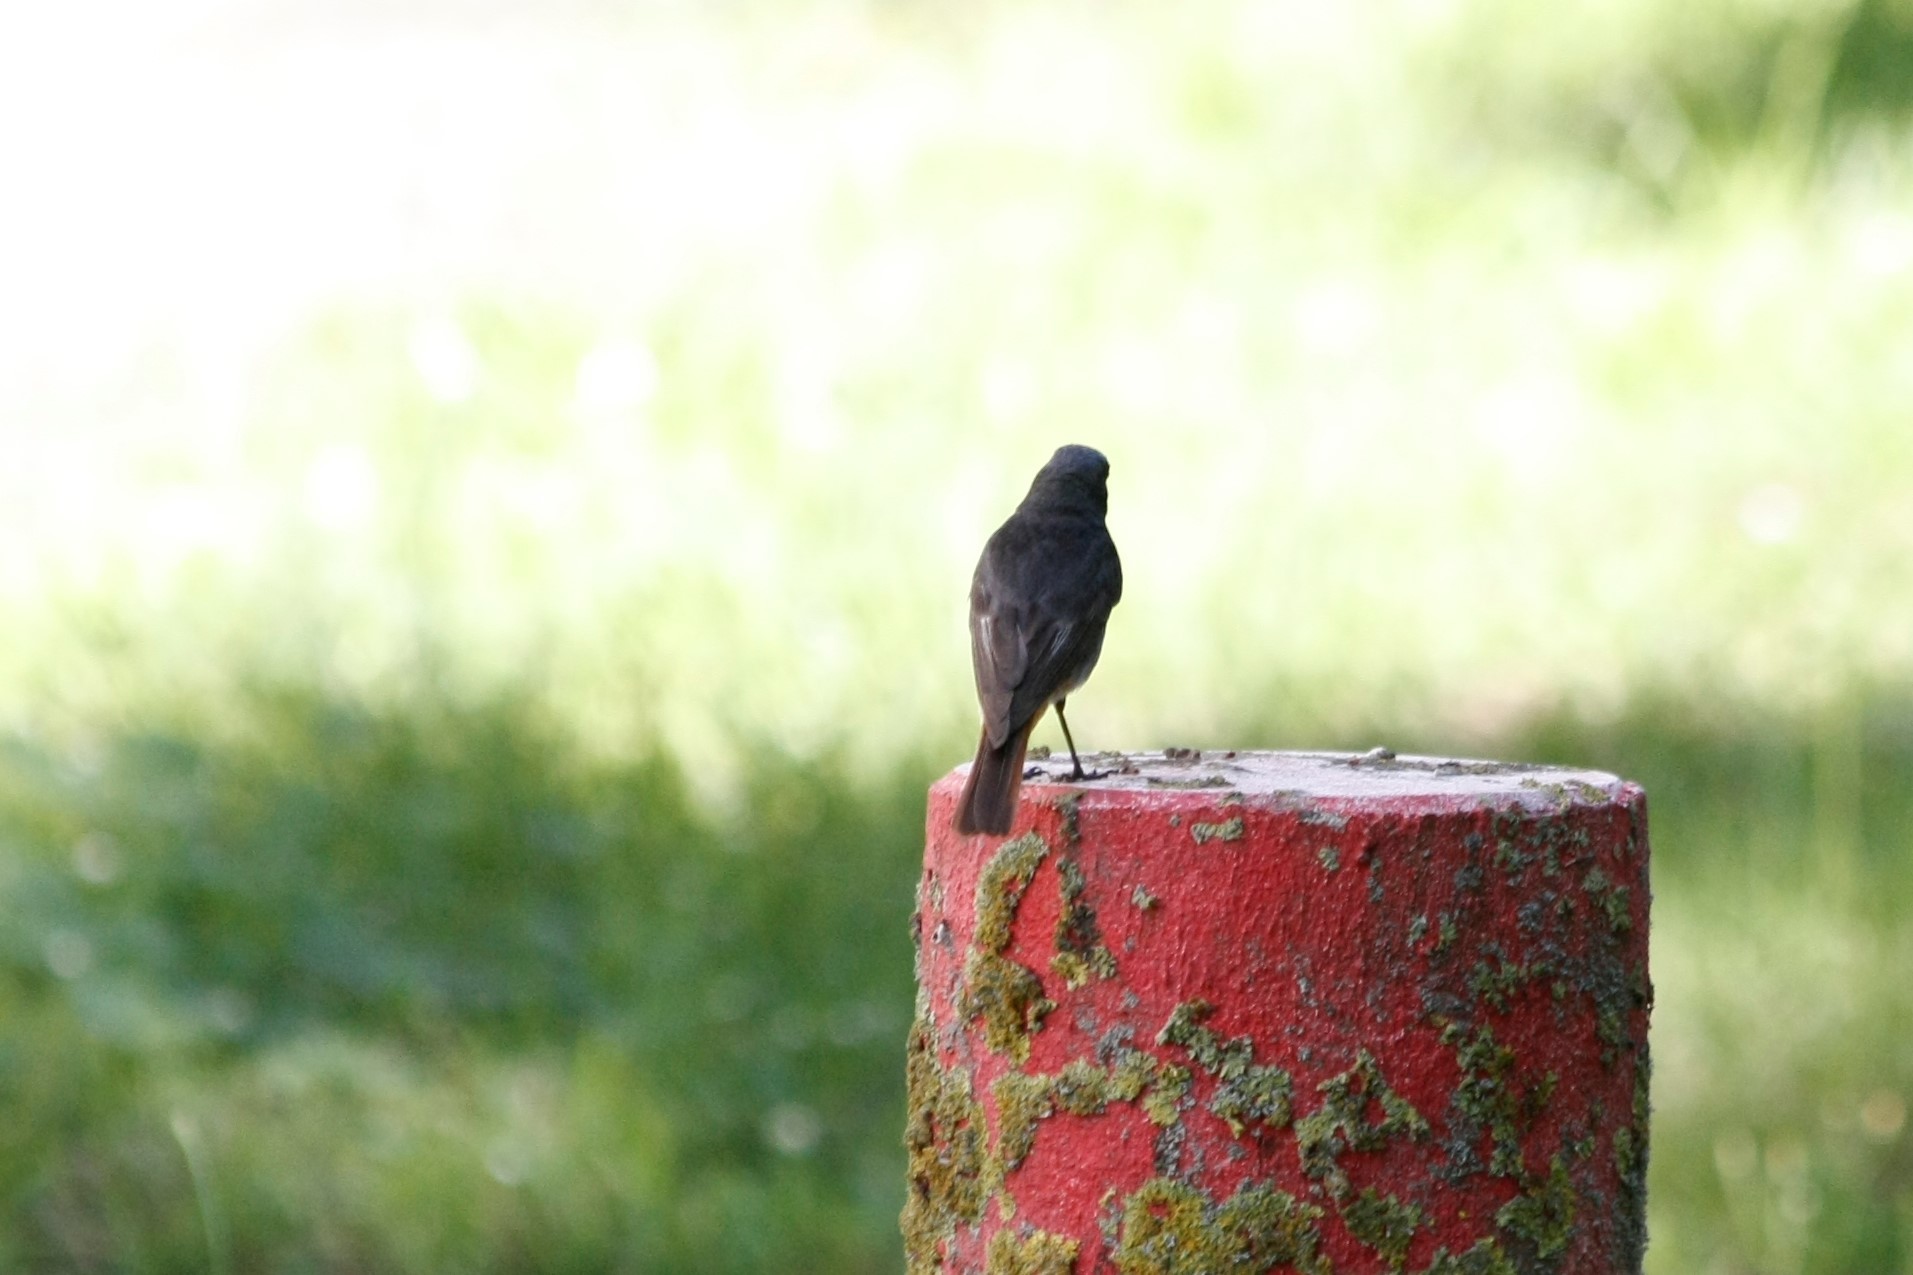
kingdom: Animalia
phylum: Chordata
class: Aves
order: Passeriformes
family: Muscicapidae
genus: Phoenicurus
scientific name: Phoenicurus ochruros
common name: Black redstart
